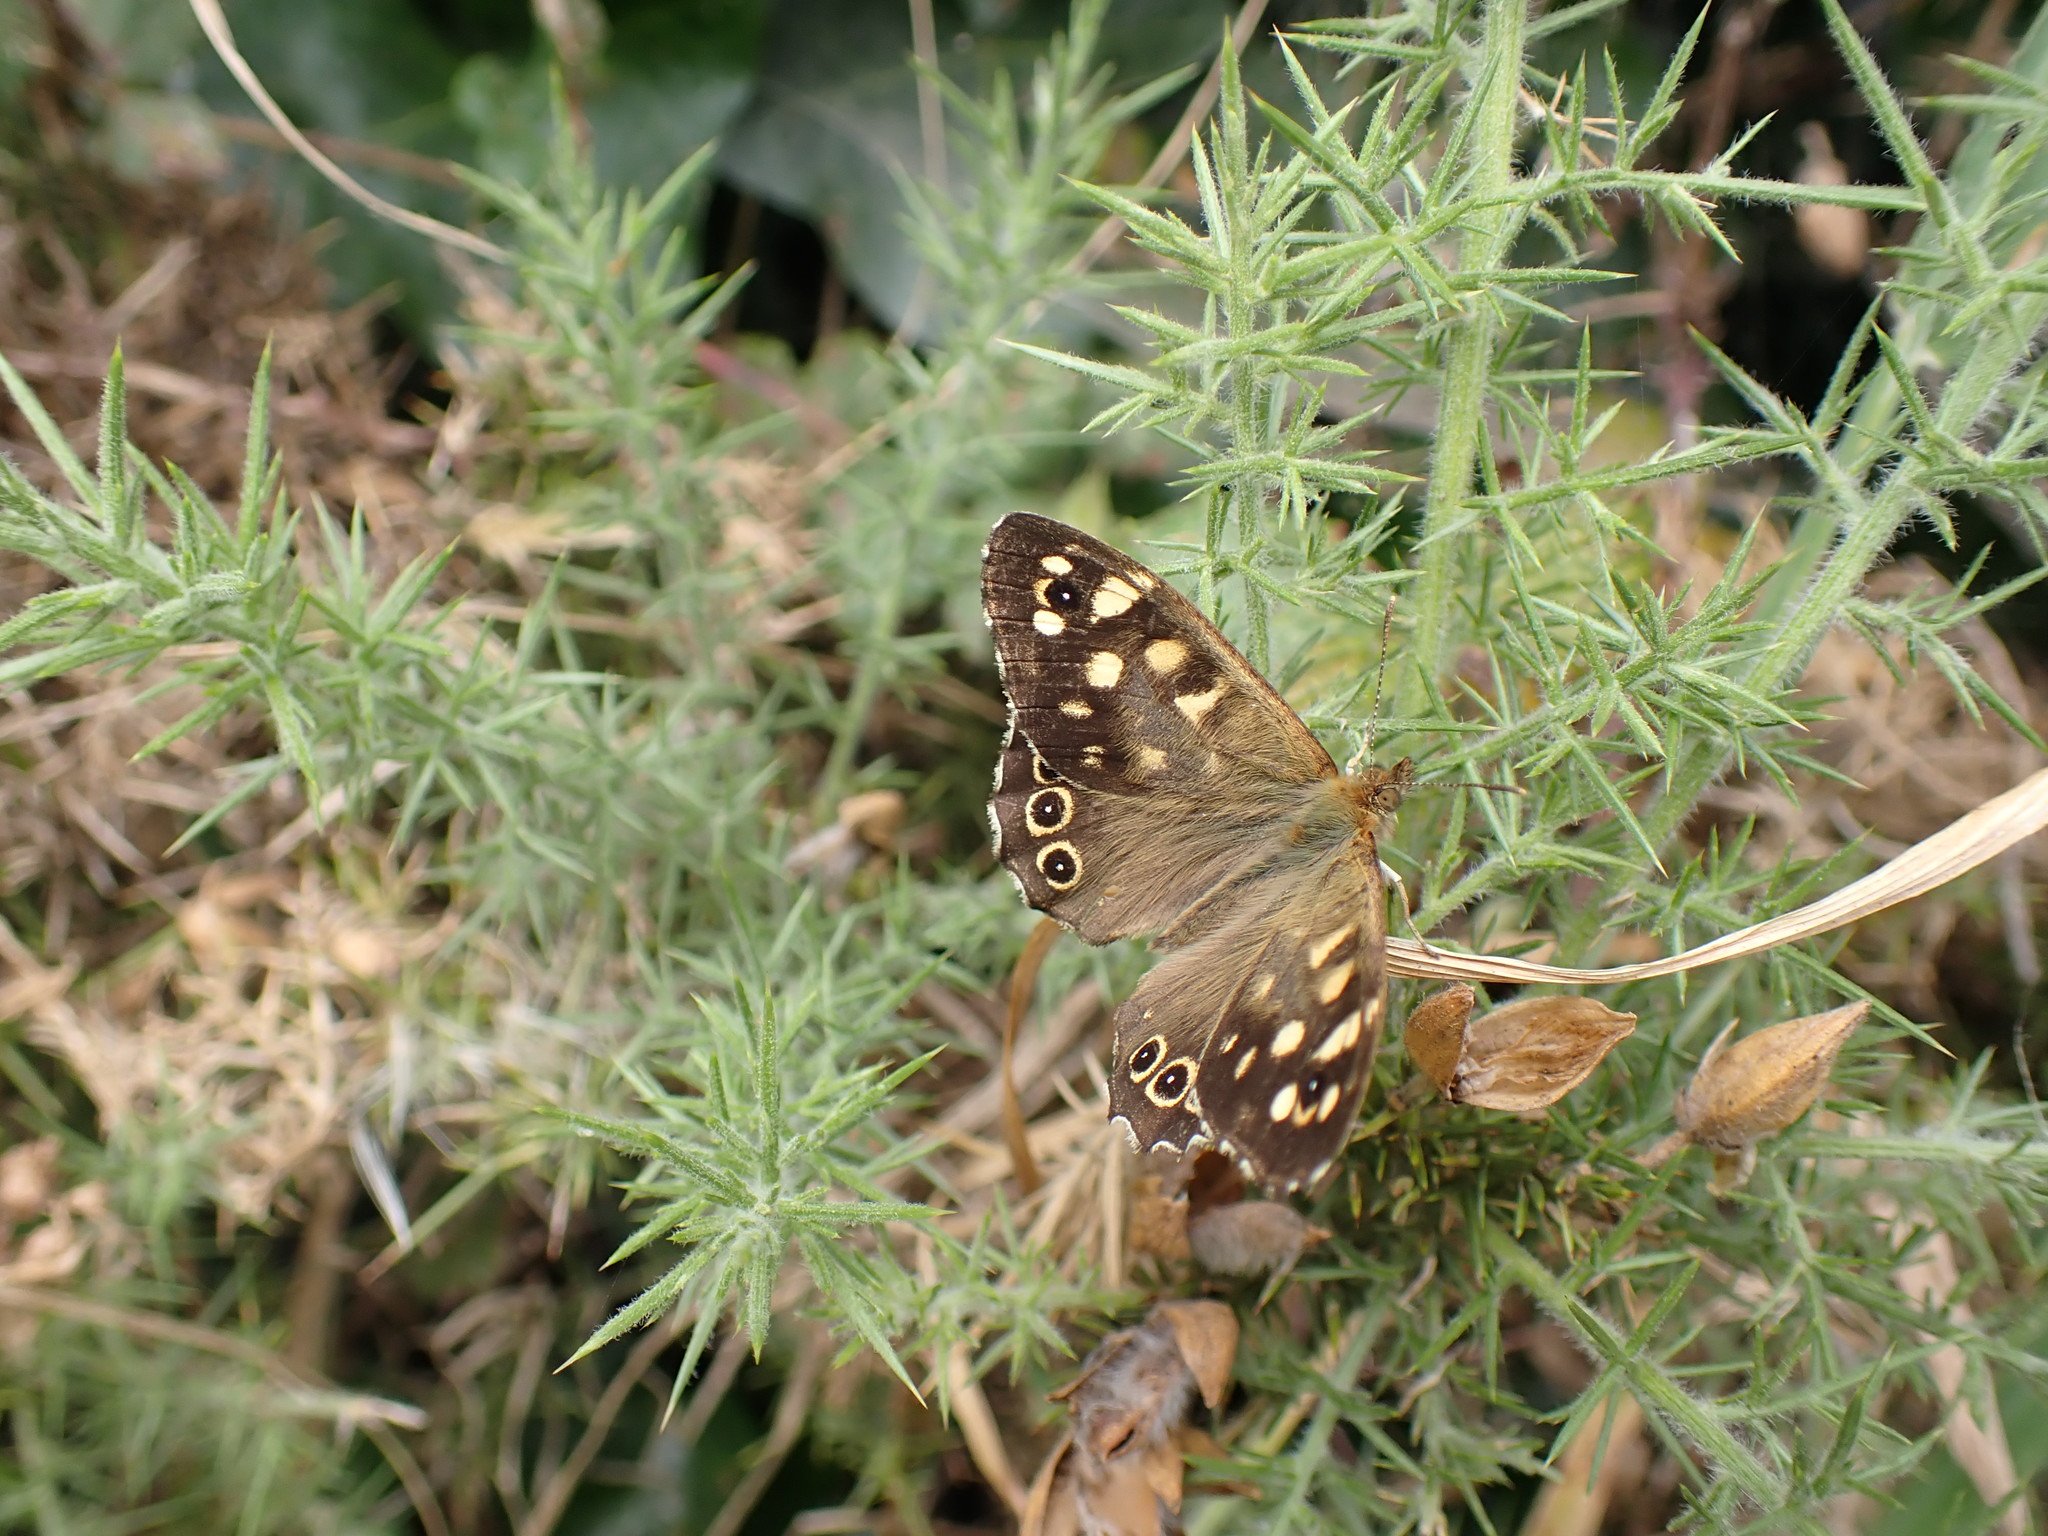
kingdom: Animalia
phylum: Arthropoda
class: Insecta
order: Lepidoptera
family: Nymphalidae
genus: Pararge
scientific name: Pararge aegeria
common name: Speckled wood
